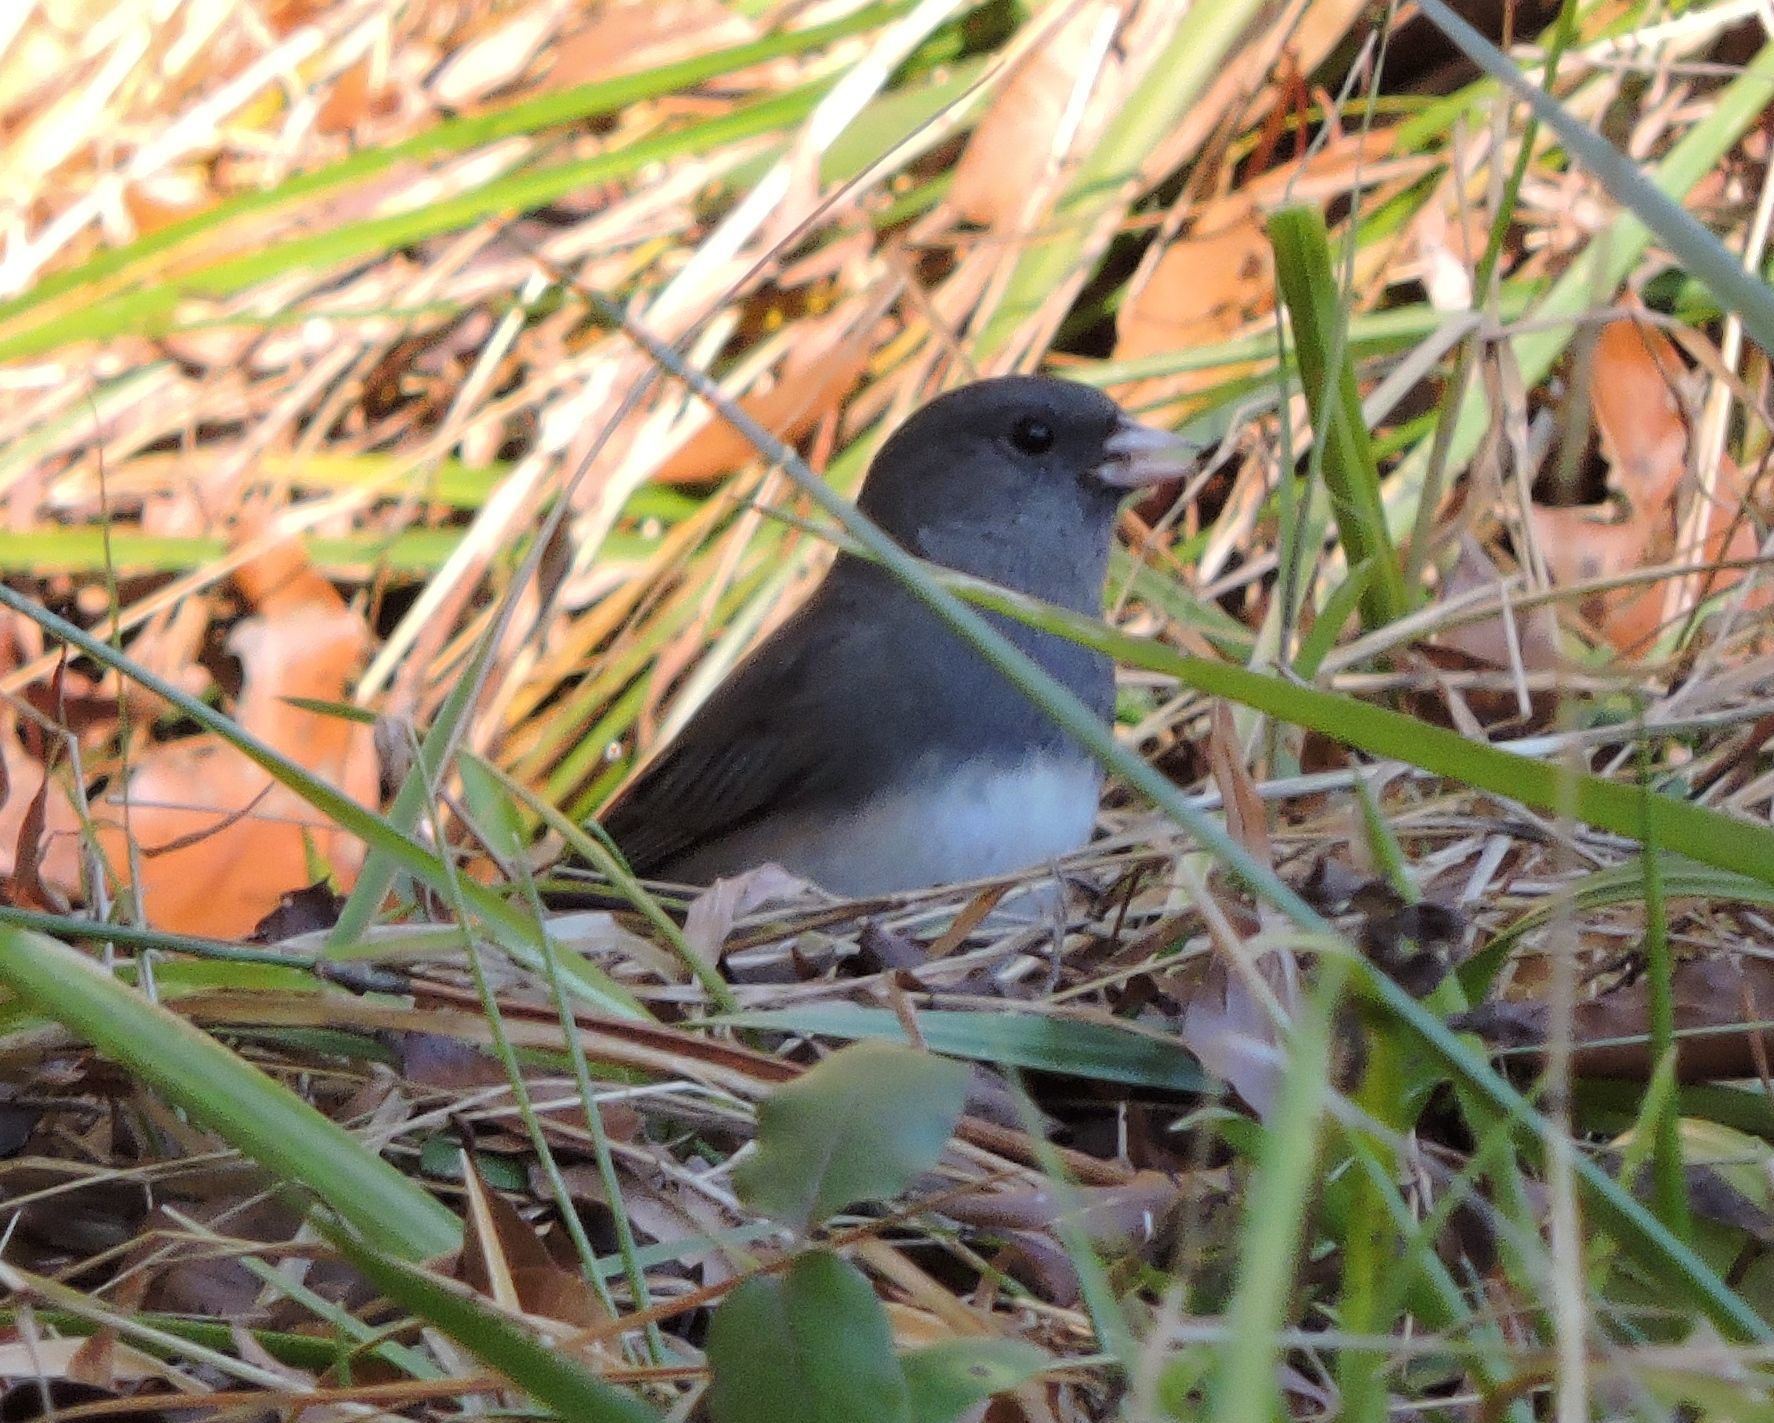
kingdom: Animalia
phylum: Chordata
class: Aves
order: Passeriformes
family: Passerellidae
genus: Junco
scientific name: Junco hyemalis
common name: Dark-eyed junco
